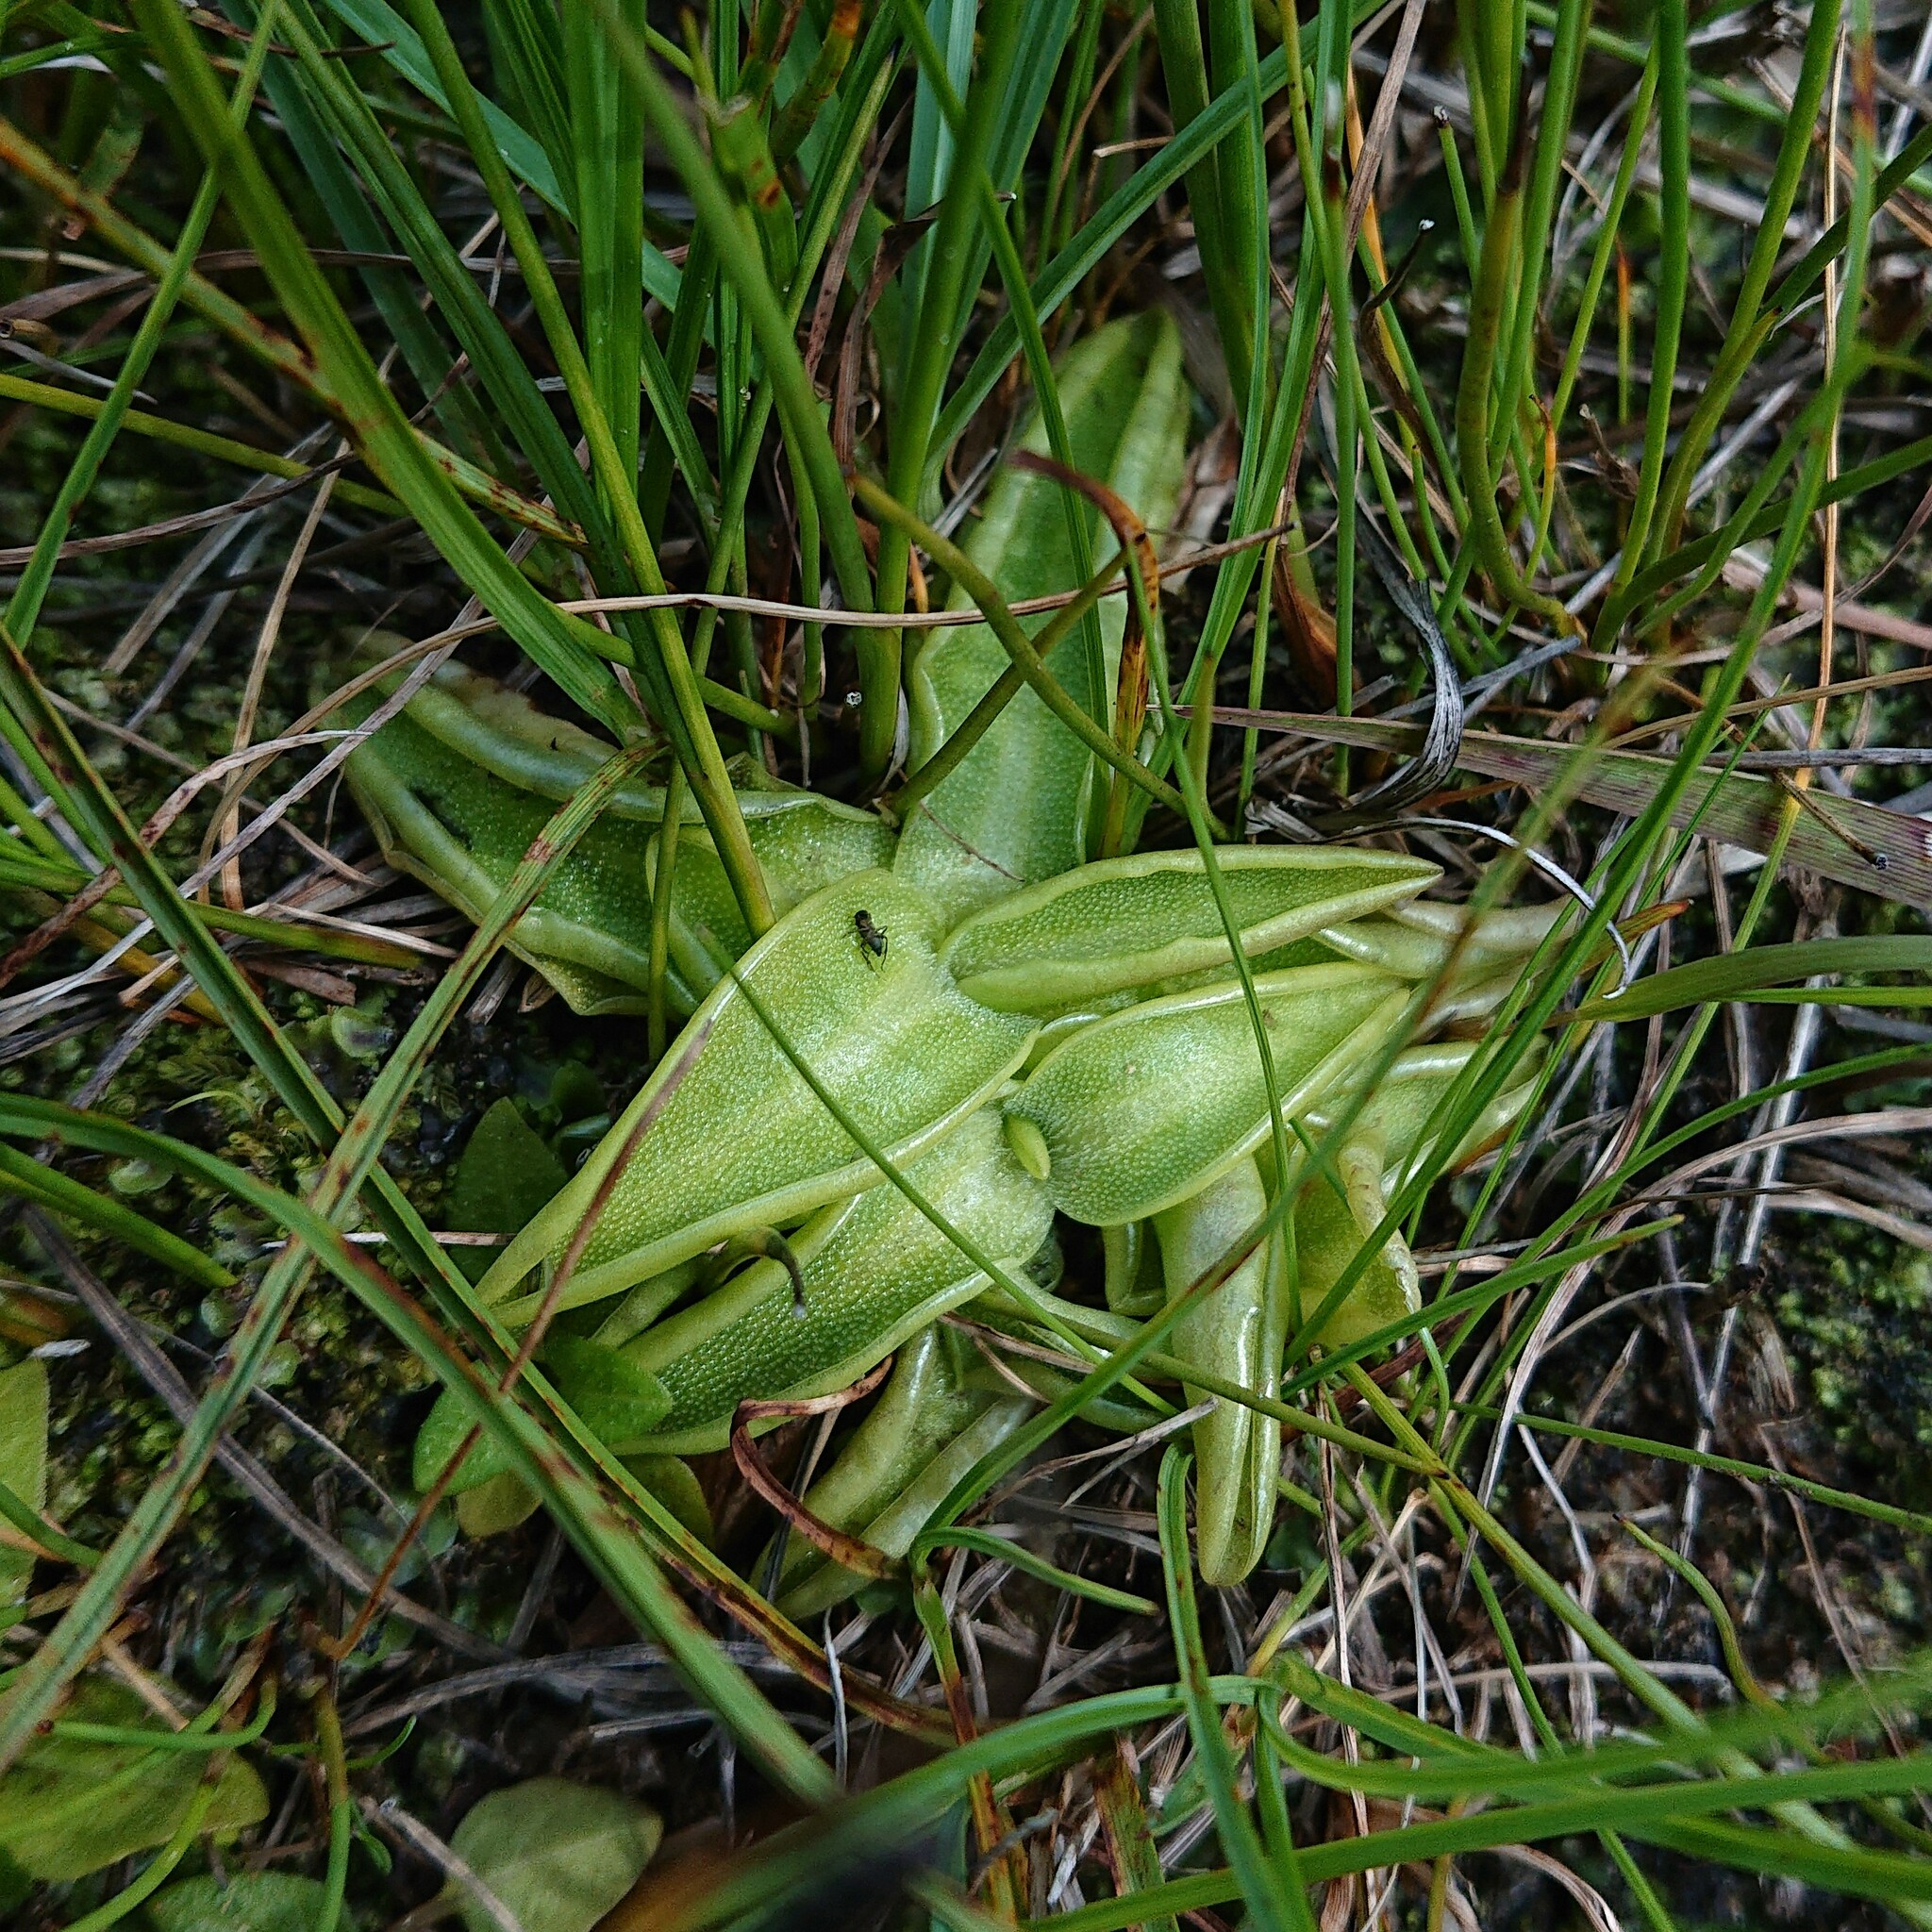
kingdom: Plantae
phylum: Tracheophyta
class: Magnoliopsida
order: Lamiales
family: Lentibulariaceae
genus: Pinguicula
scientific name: Pinguicula vulgaris
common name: Common butterwort
